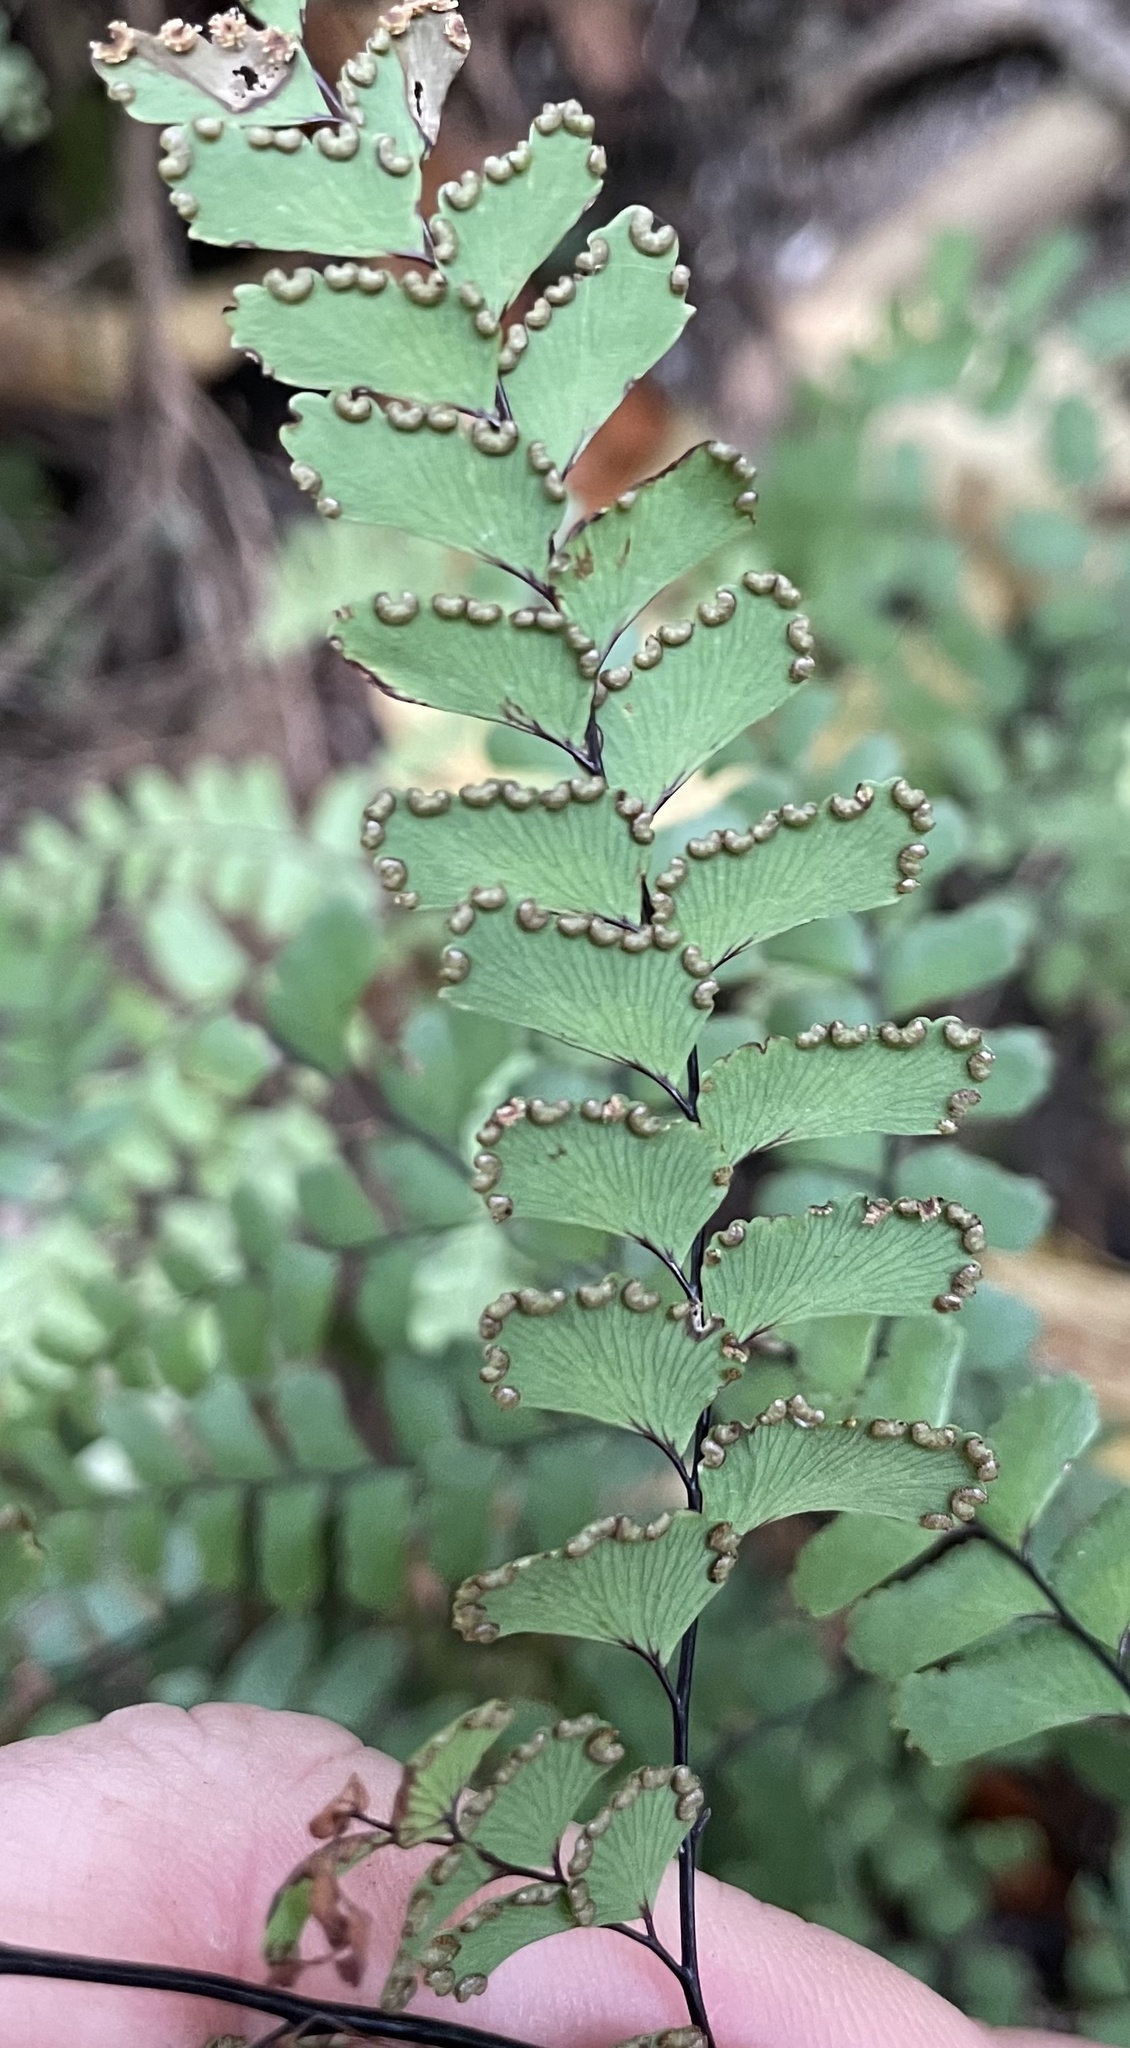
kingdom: Plantae
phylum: Tracheophyta
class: Polypodiopsida
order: Polypodiales
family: Pteridaceae
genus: Adiantum
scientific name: Adiantum cunninghamii
